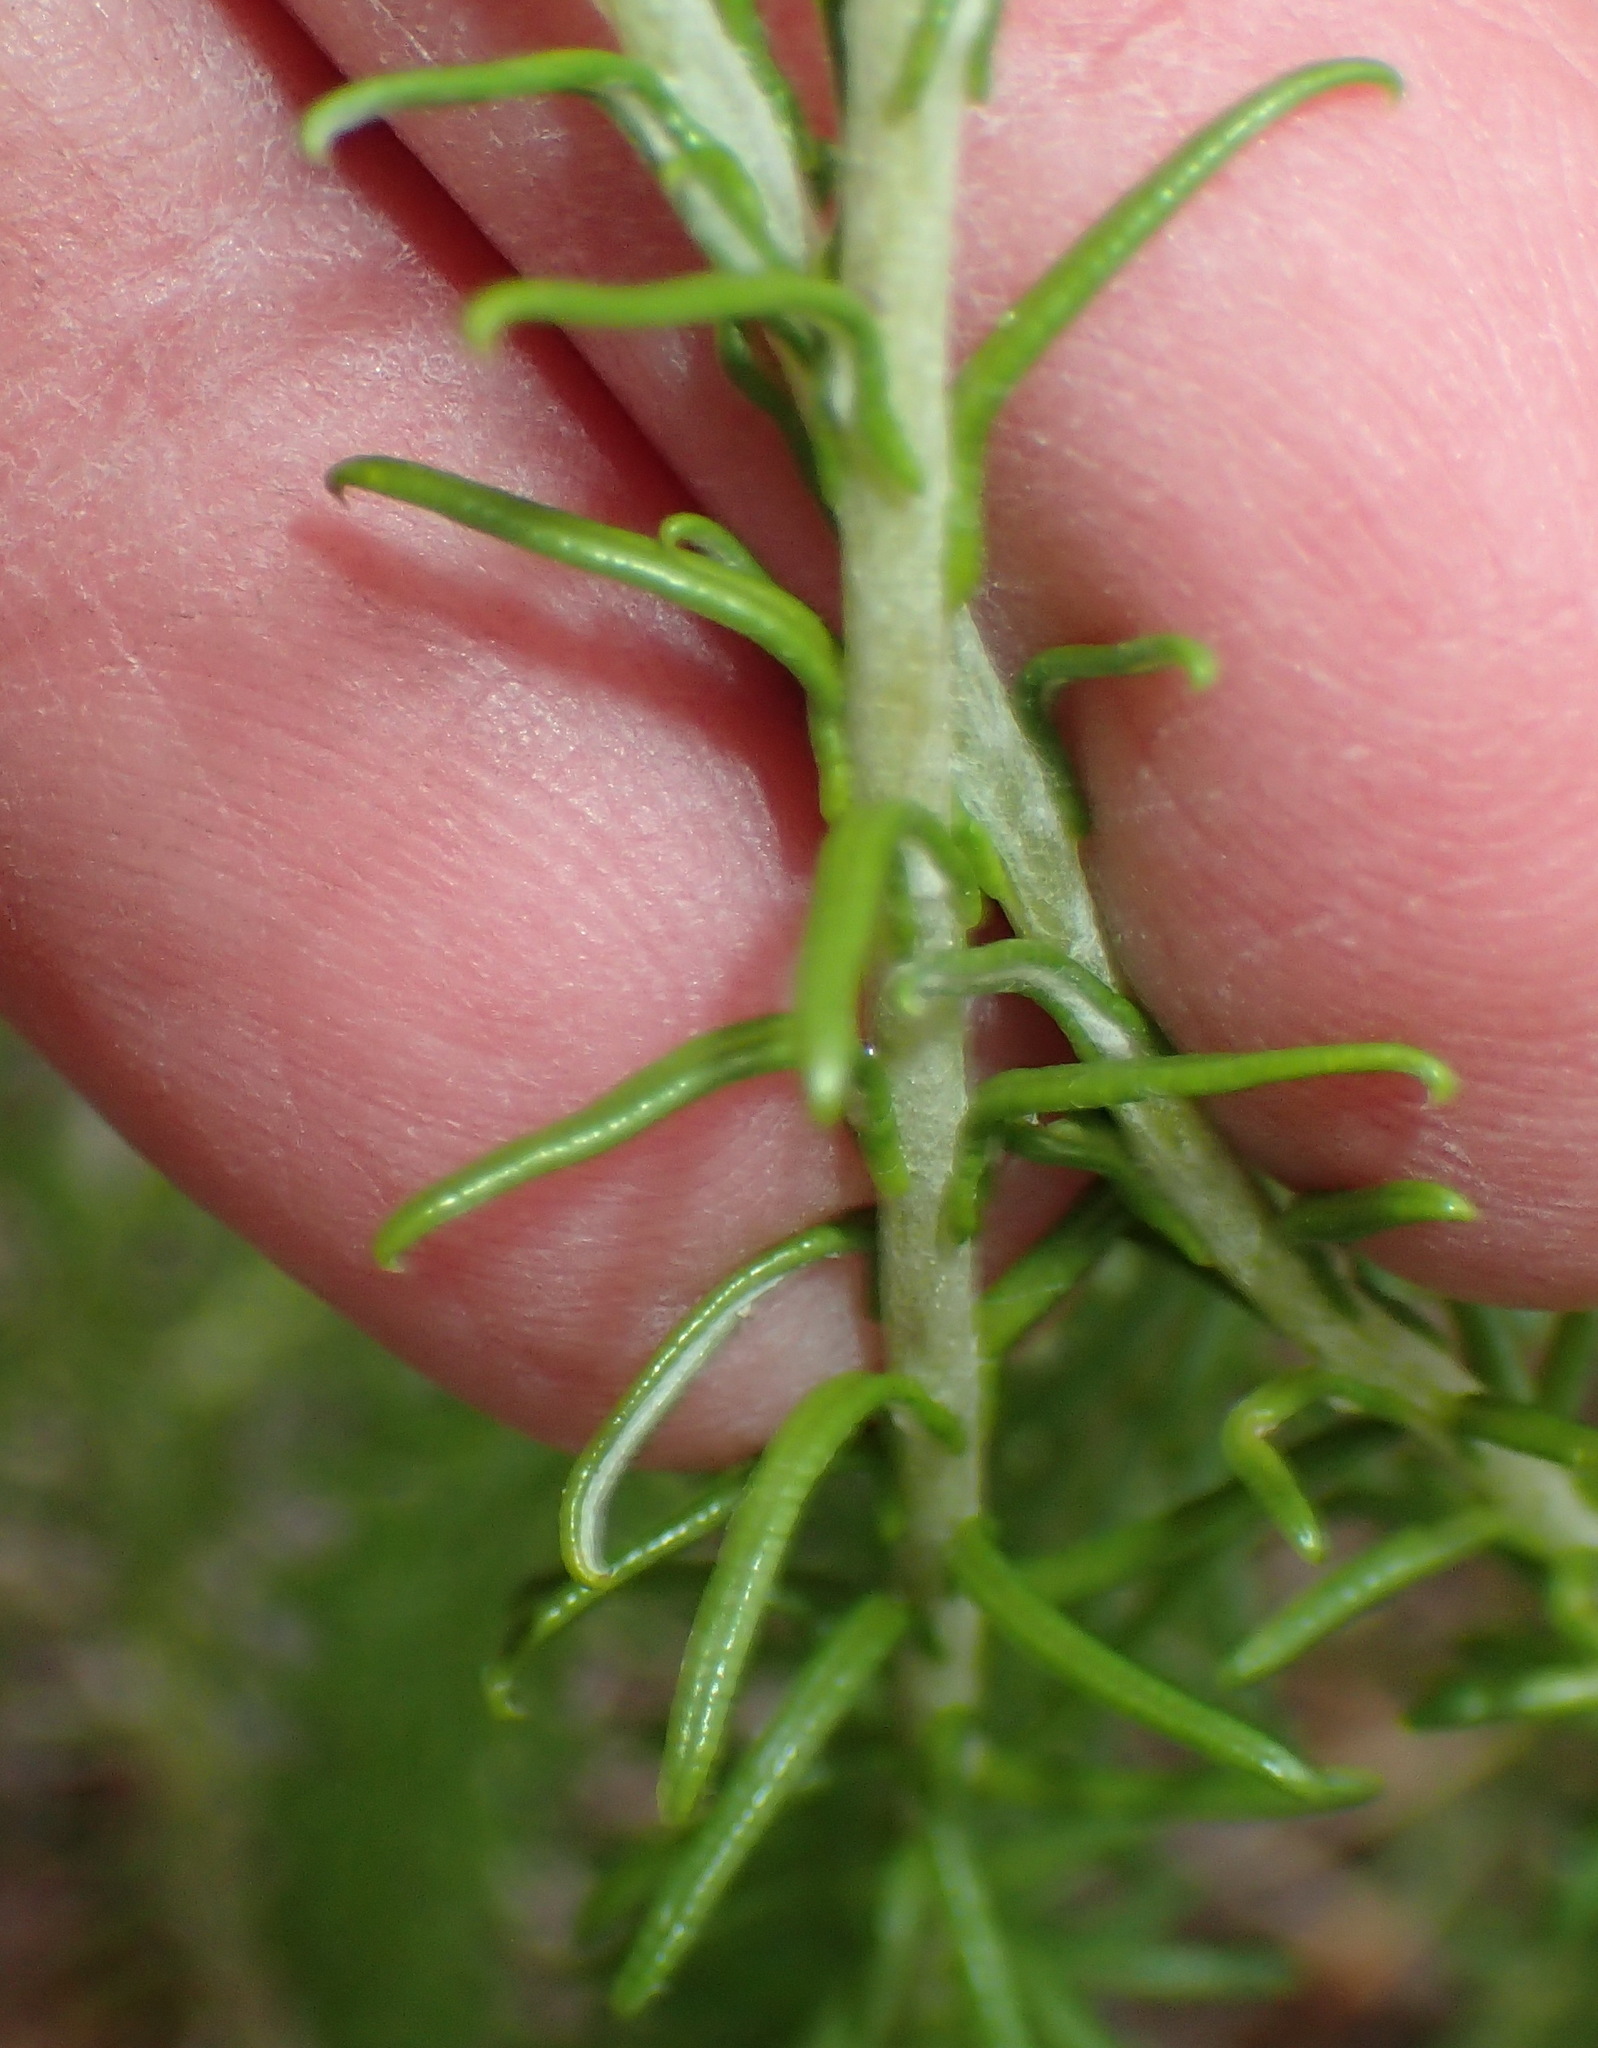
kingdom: Plantae
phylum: Tracheophyta
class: Magnoliopsida
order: Asterales
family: Asteraceae
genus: Helichrysum
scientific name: Helichrysum teretifolium
